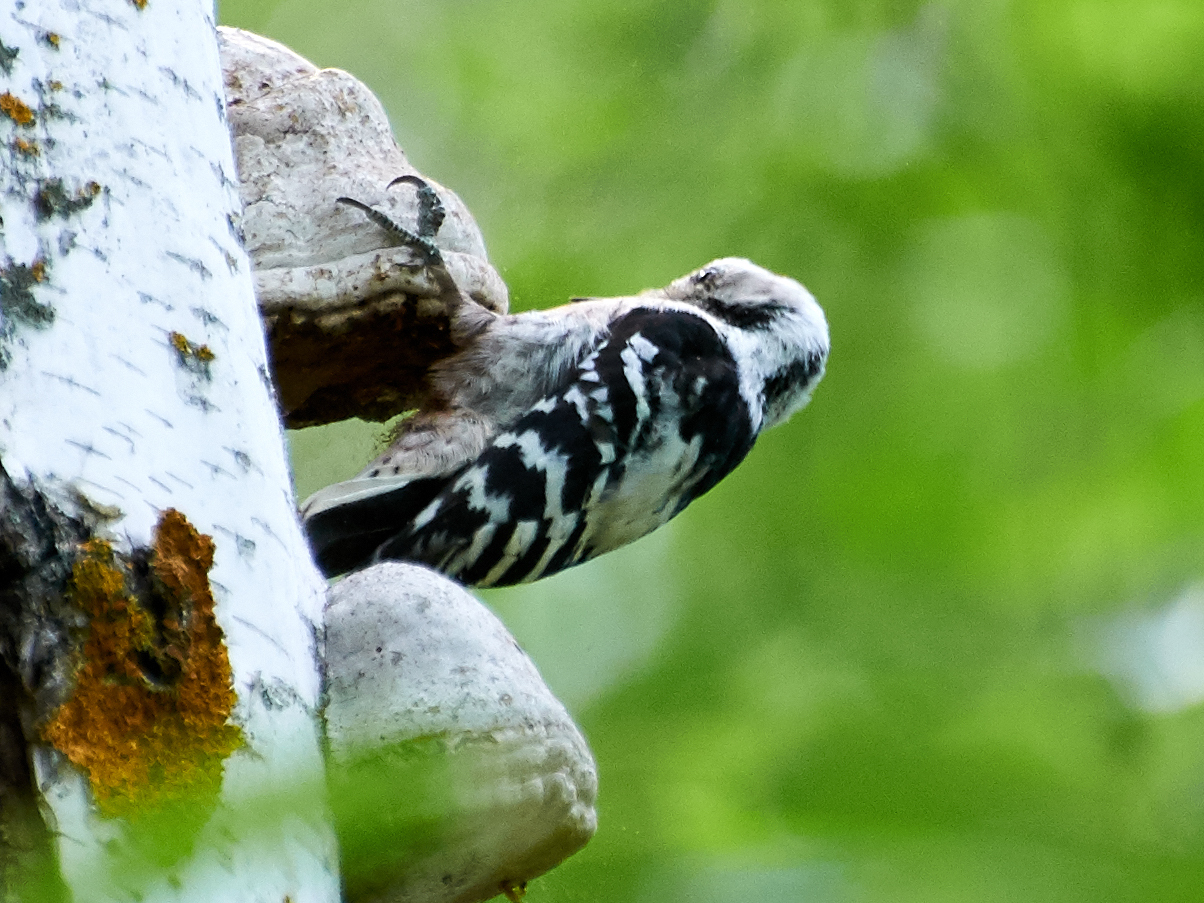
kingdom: Animalia
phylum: Chordata
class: Aves
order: Piciformes
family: Picidae
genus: Dryobates
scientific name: Dryobates minor
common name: Lesser spotted woodpecker
